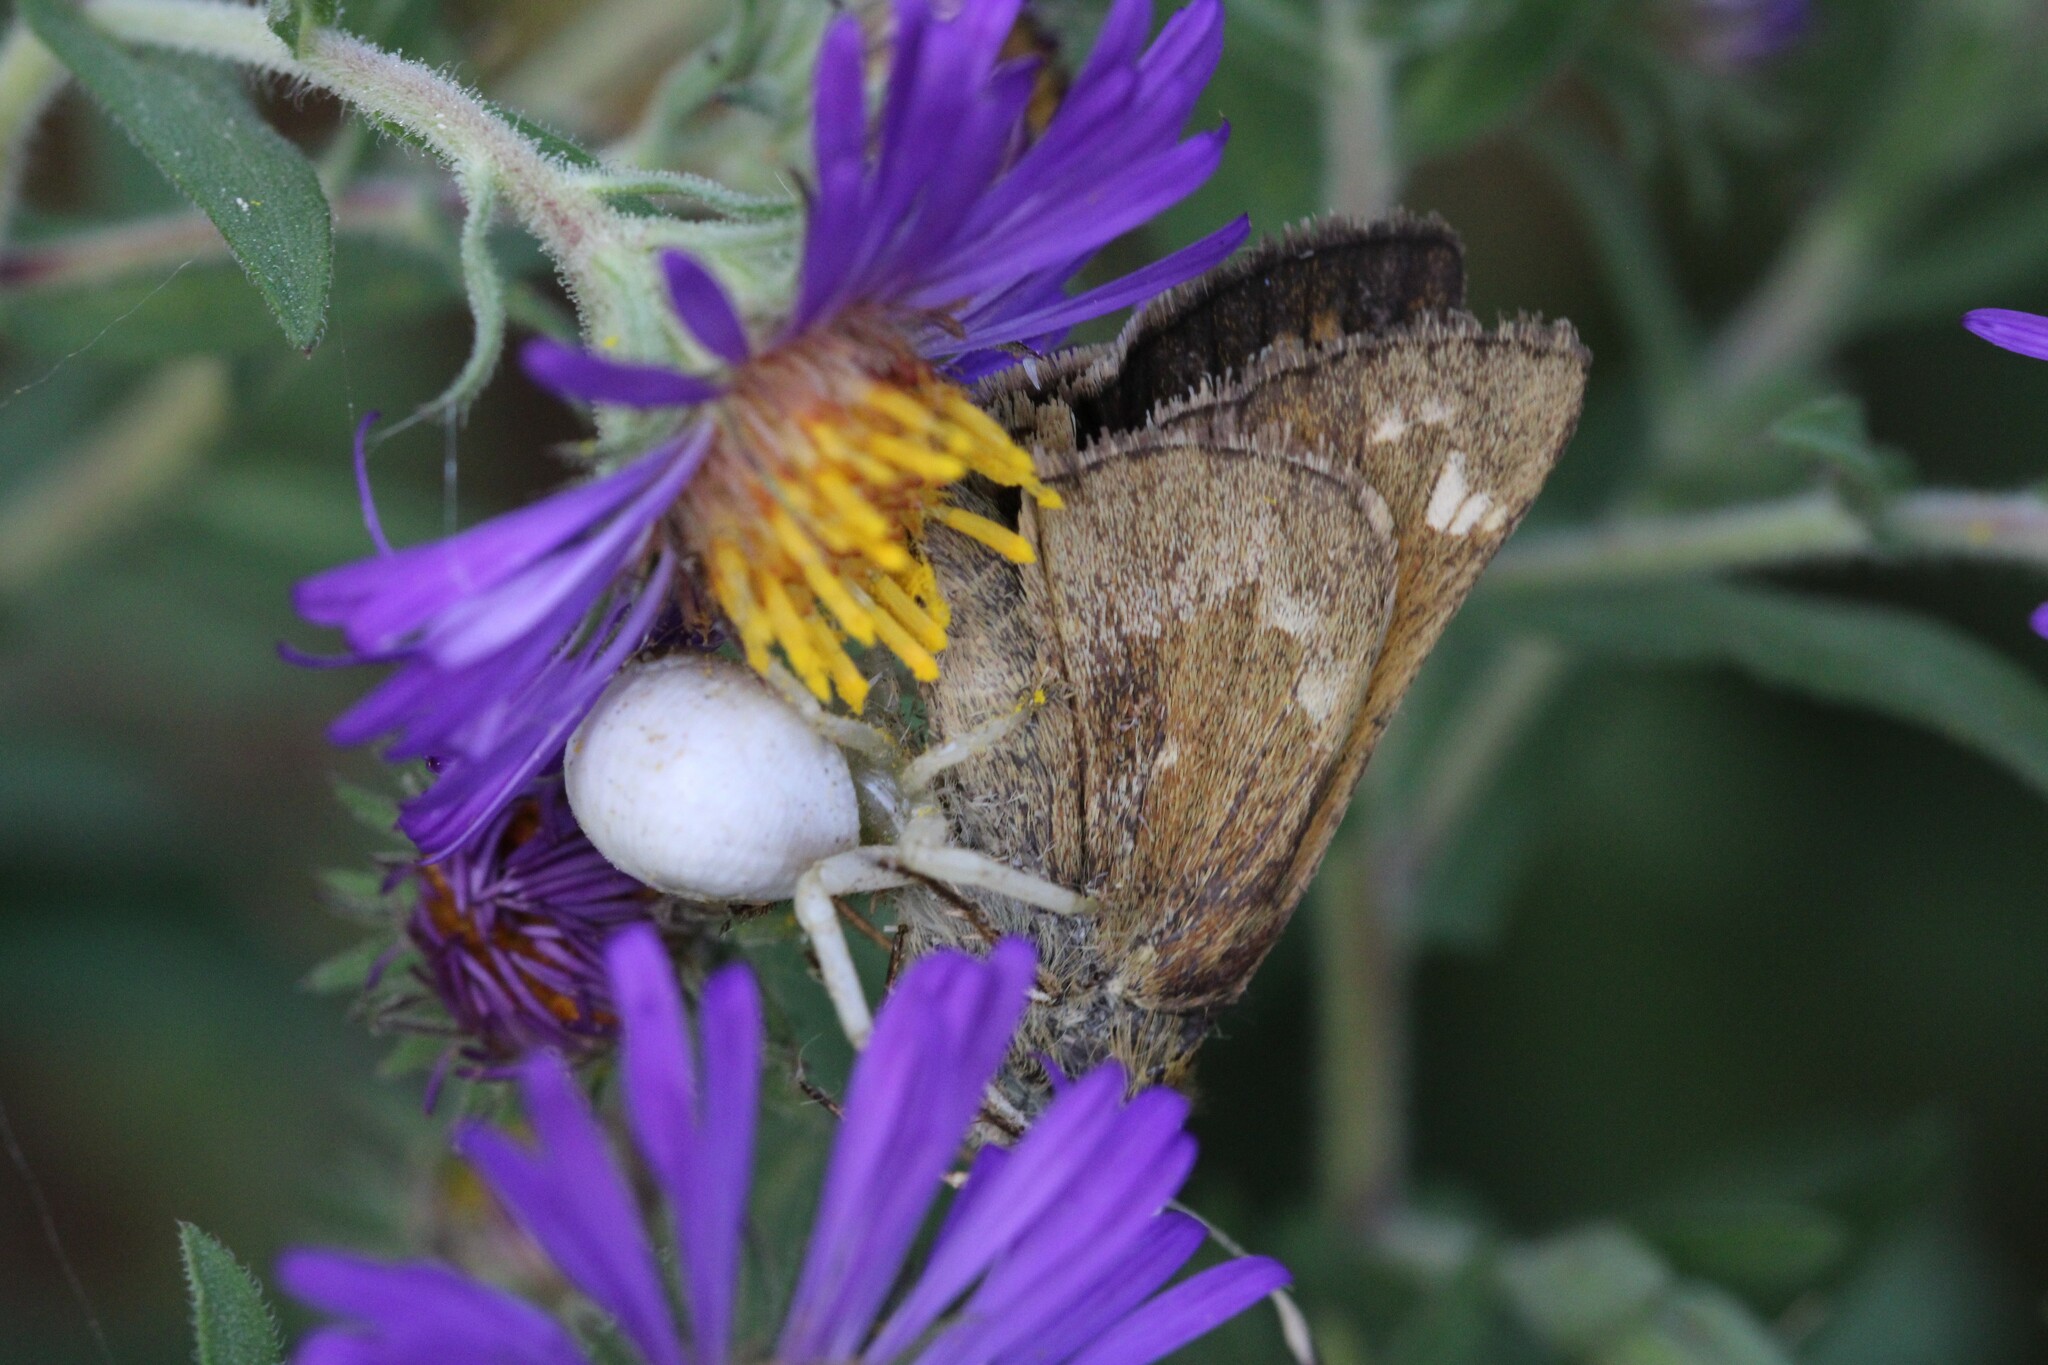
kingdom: Animalia
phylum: Arthropoda
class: Insecta
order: Lepidoptera
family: Hesperiidae
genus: Atalopedes
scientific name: Atalopedes
